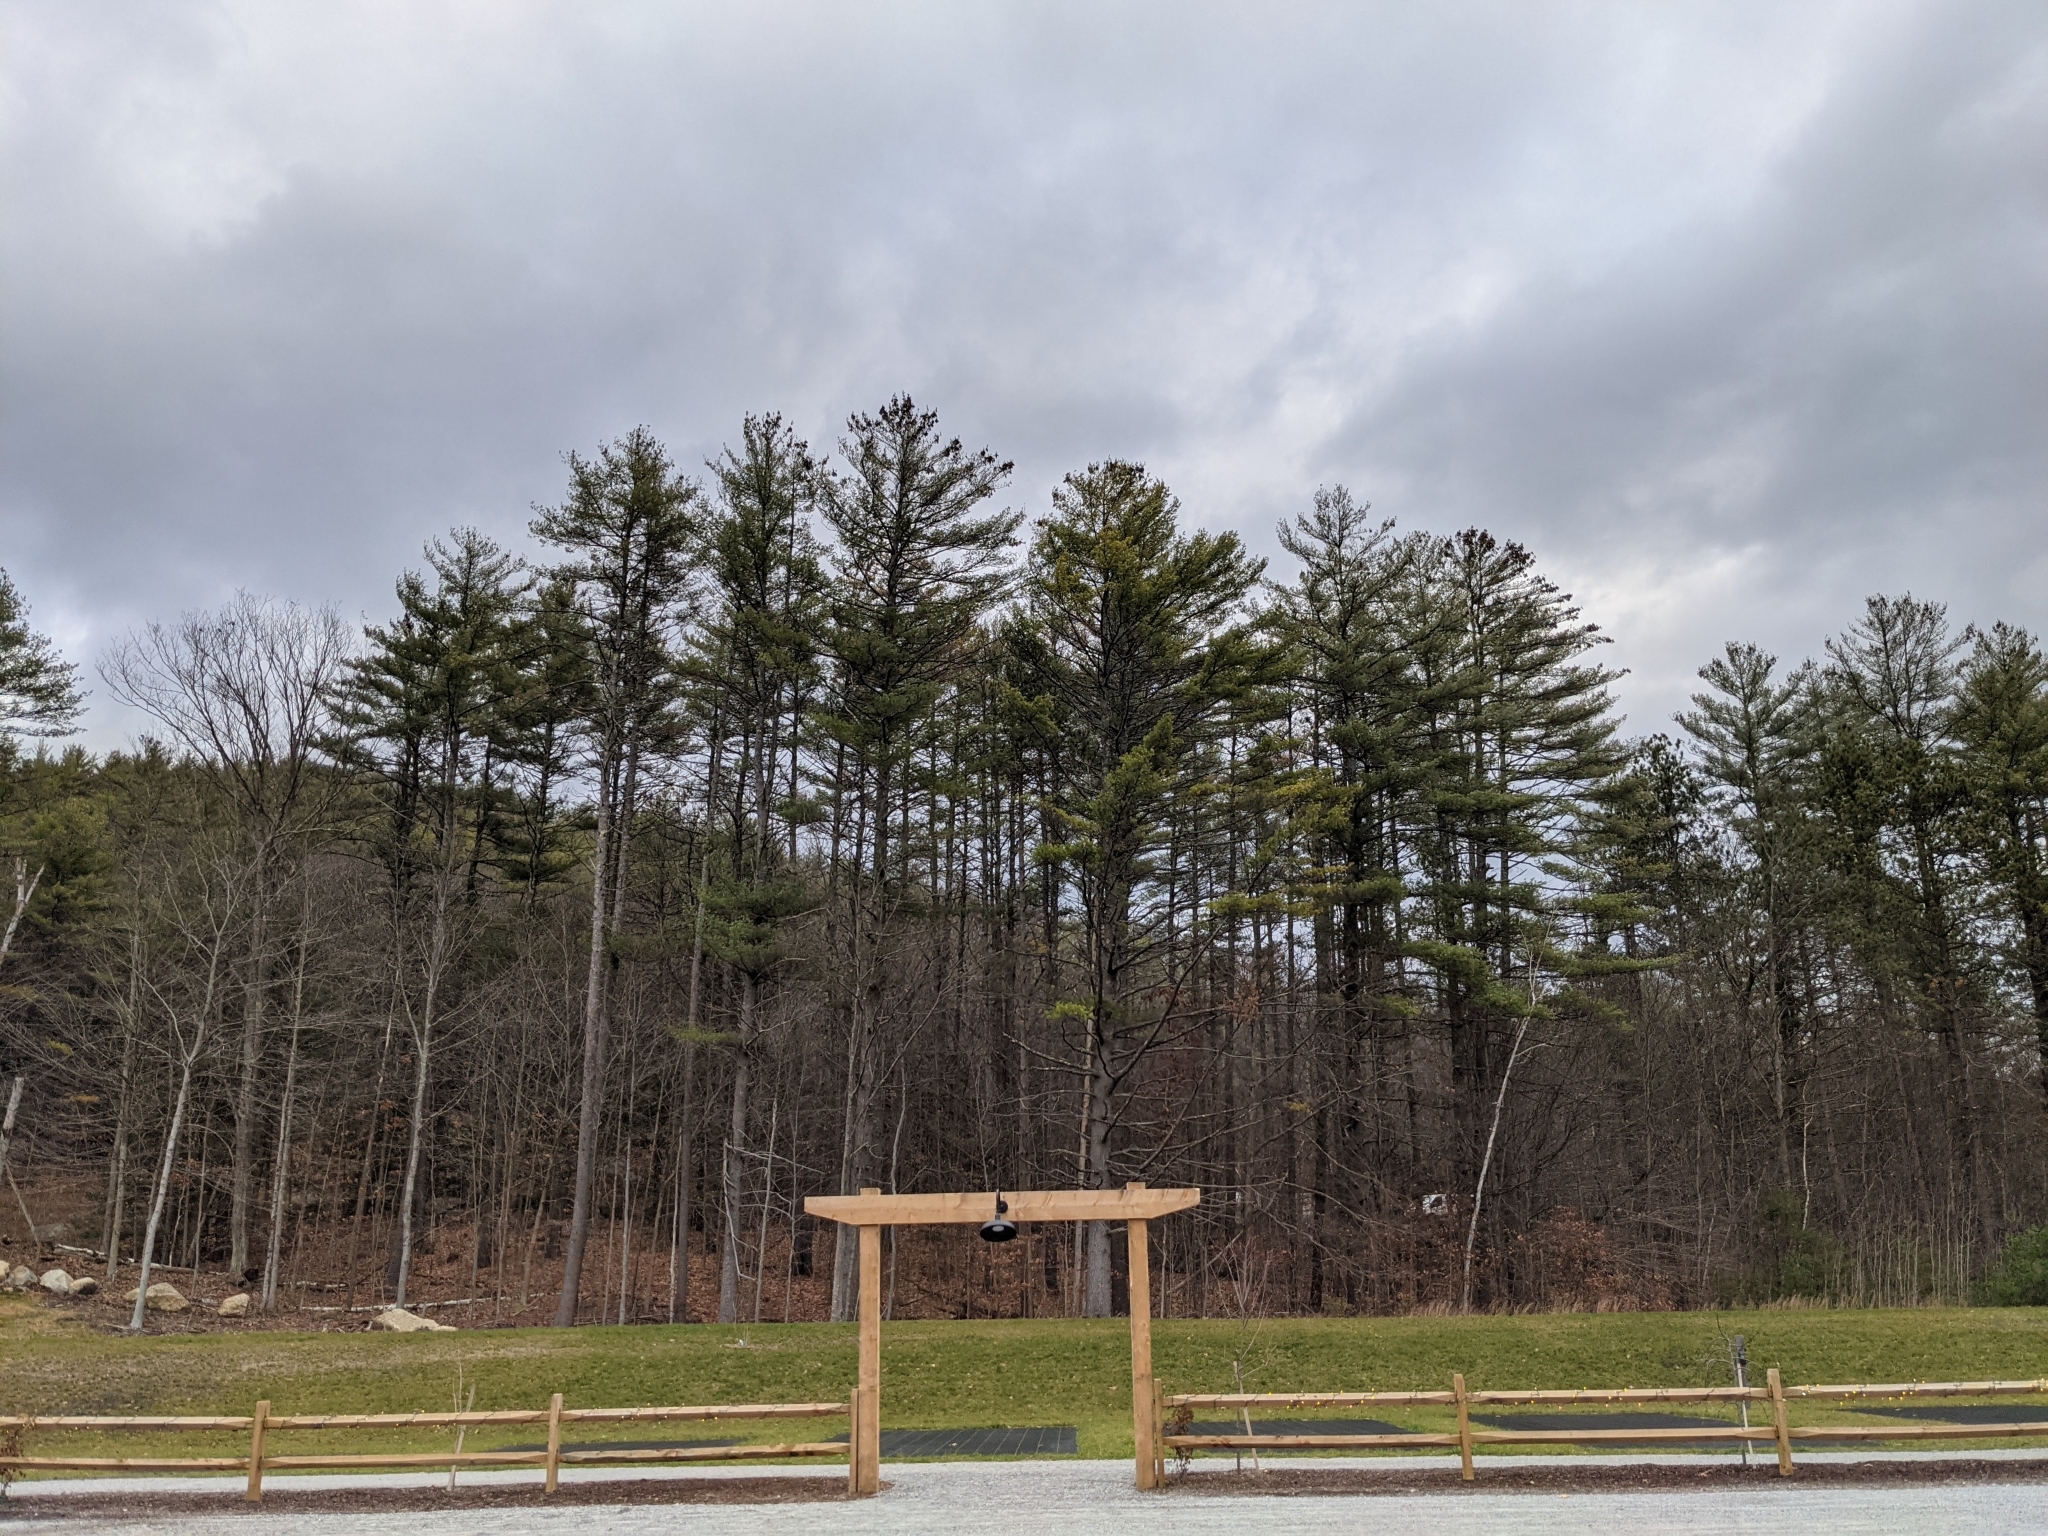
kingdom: Plantae
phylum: Tracheophyta
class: Pinopsida
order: Pinales
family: Pinaceae
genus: Pinus
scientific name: Pinus strobus
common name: Weymouth pine
